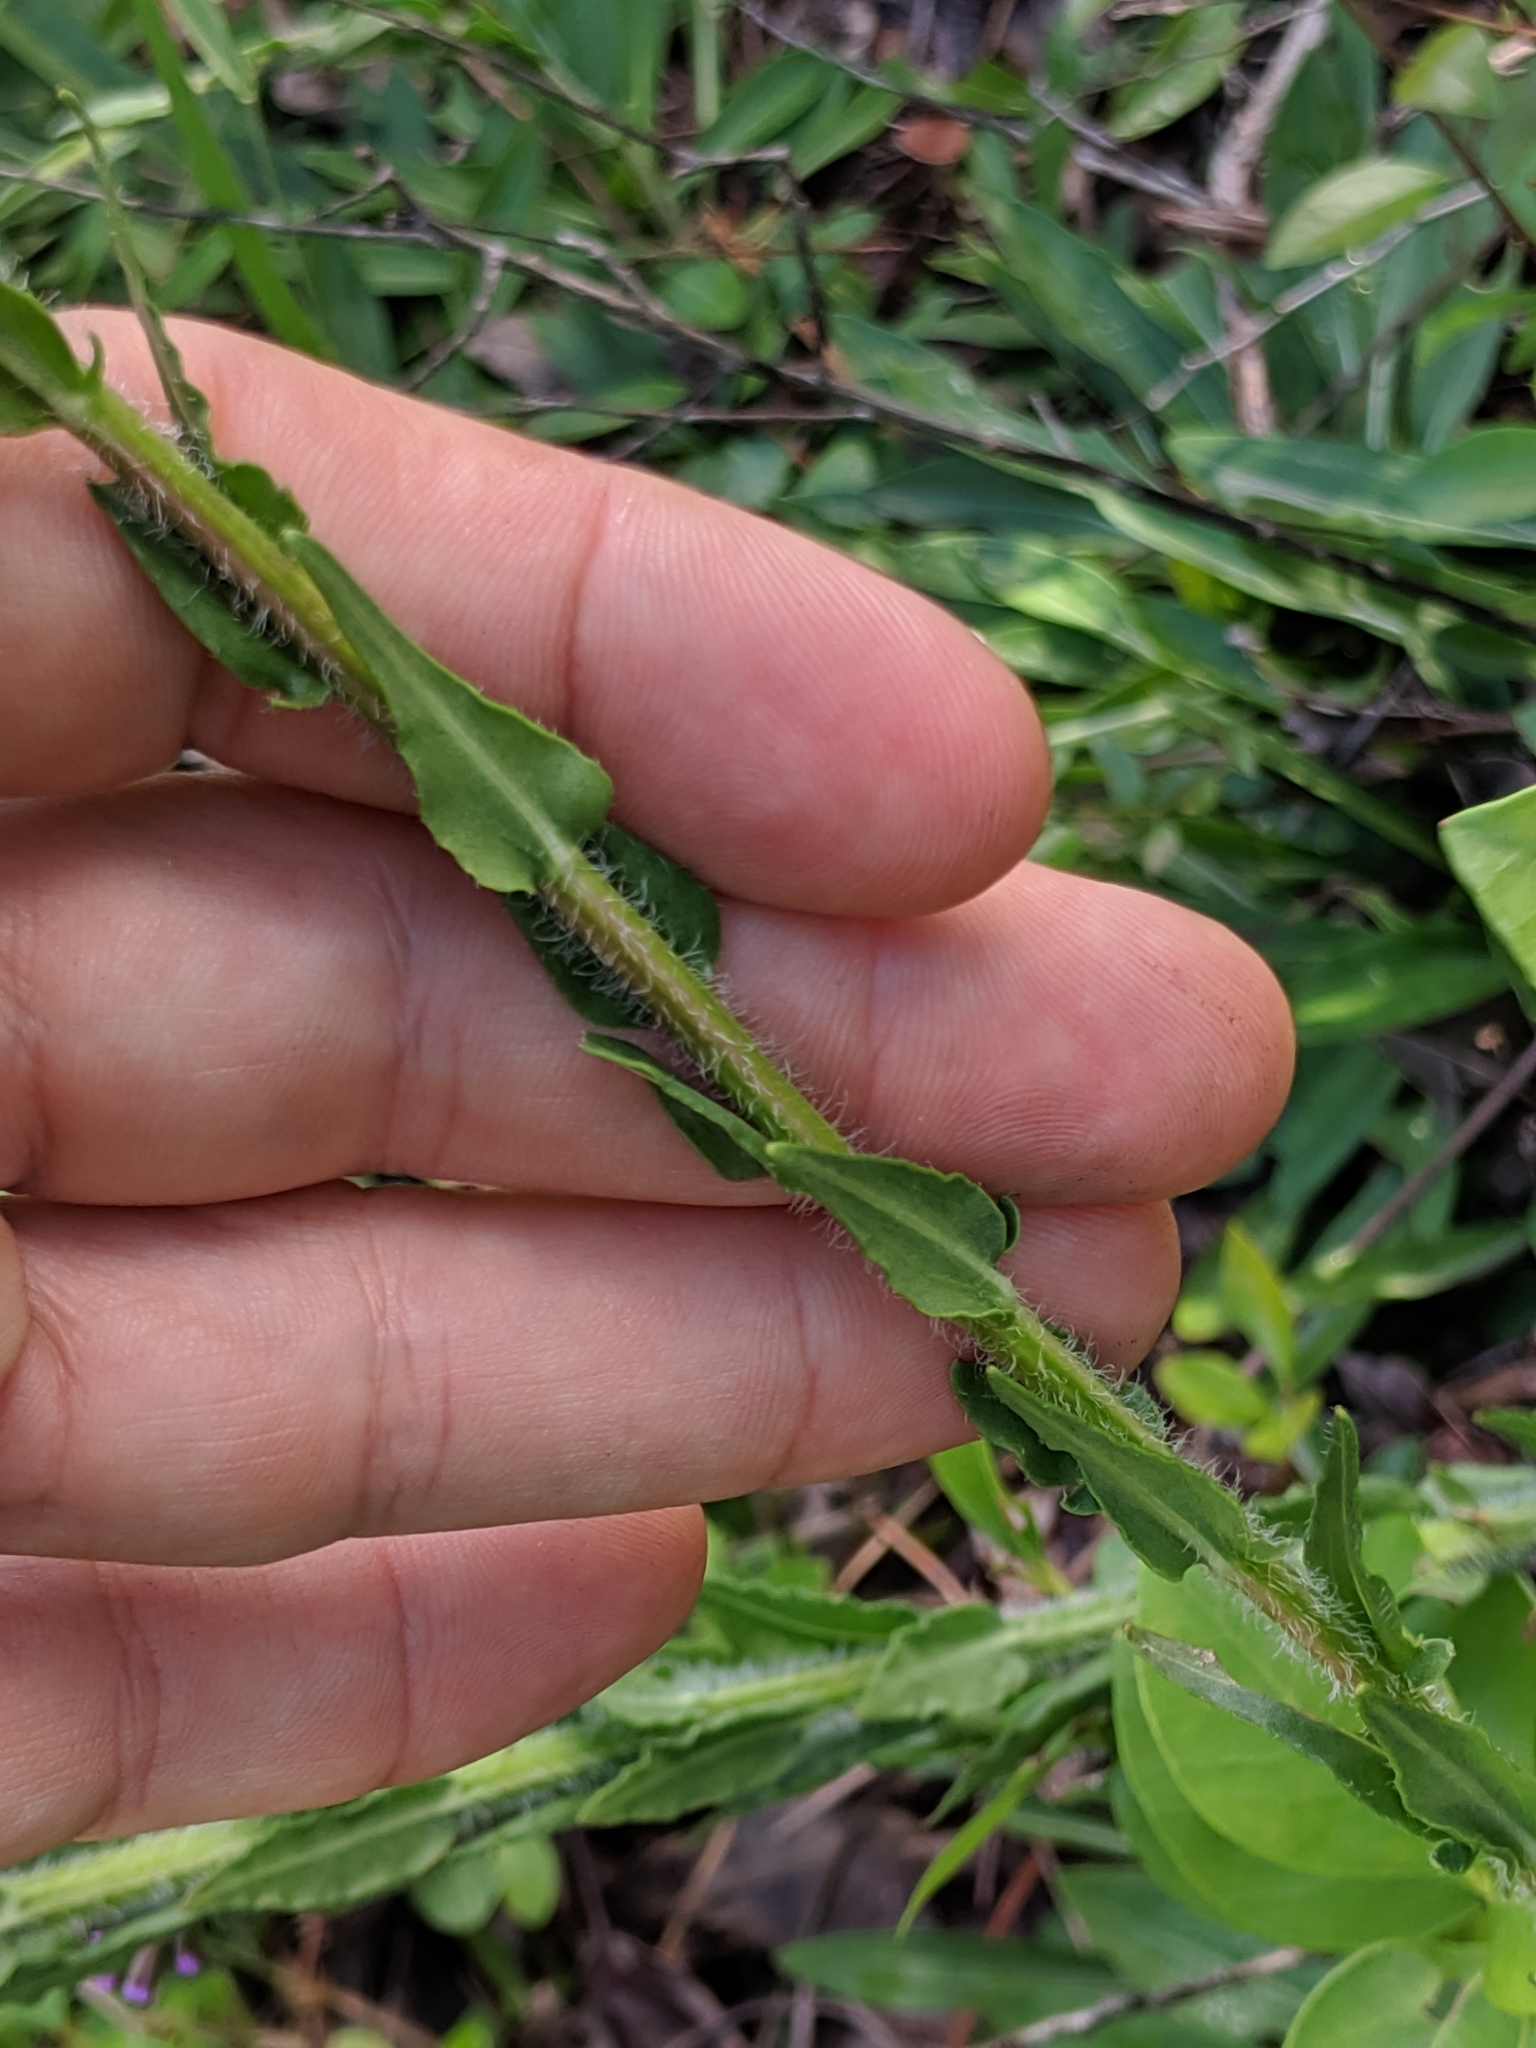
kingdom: Plantae
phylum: Tracheophyta
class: Magnoliopsida
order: Asterales
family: Asteraceae
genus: Carphephorus
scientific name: Carphephorus paniculatus
